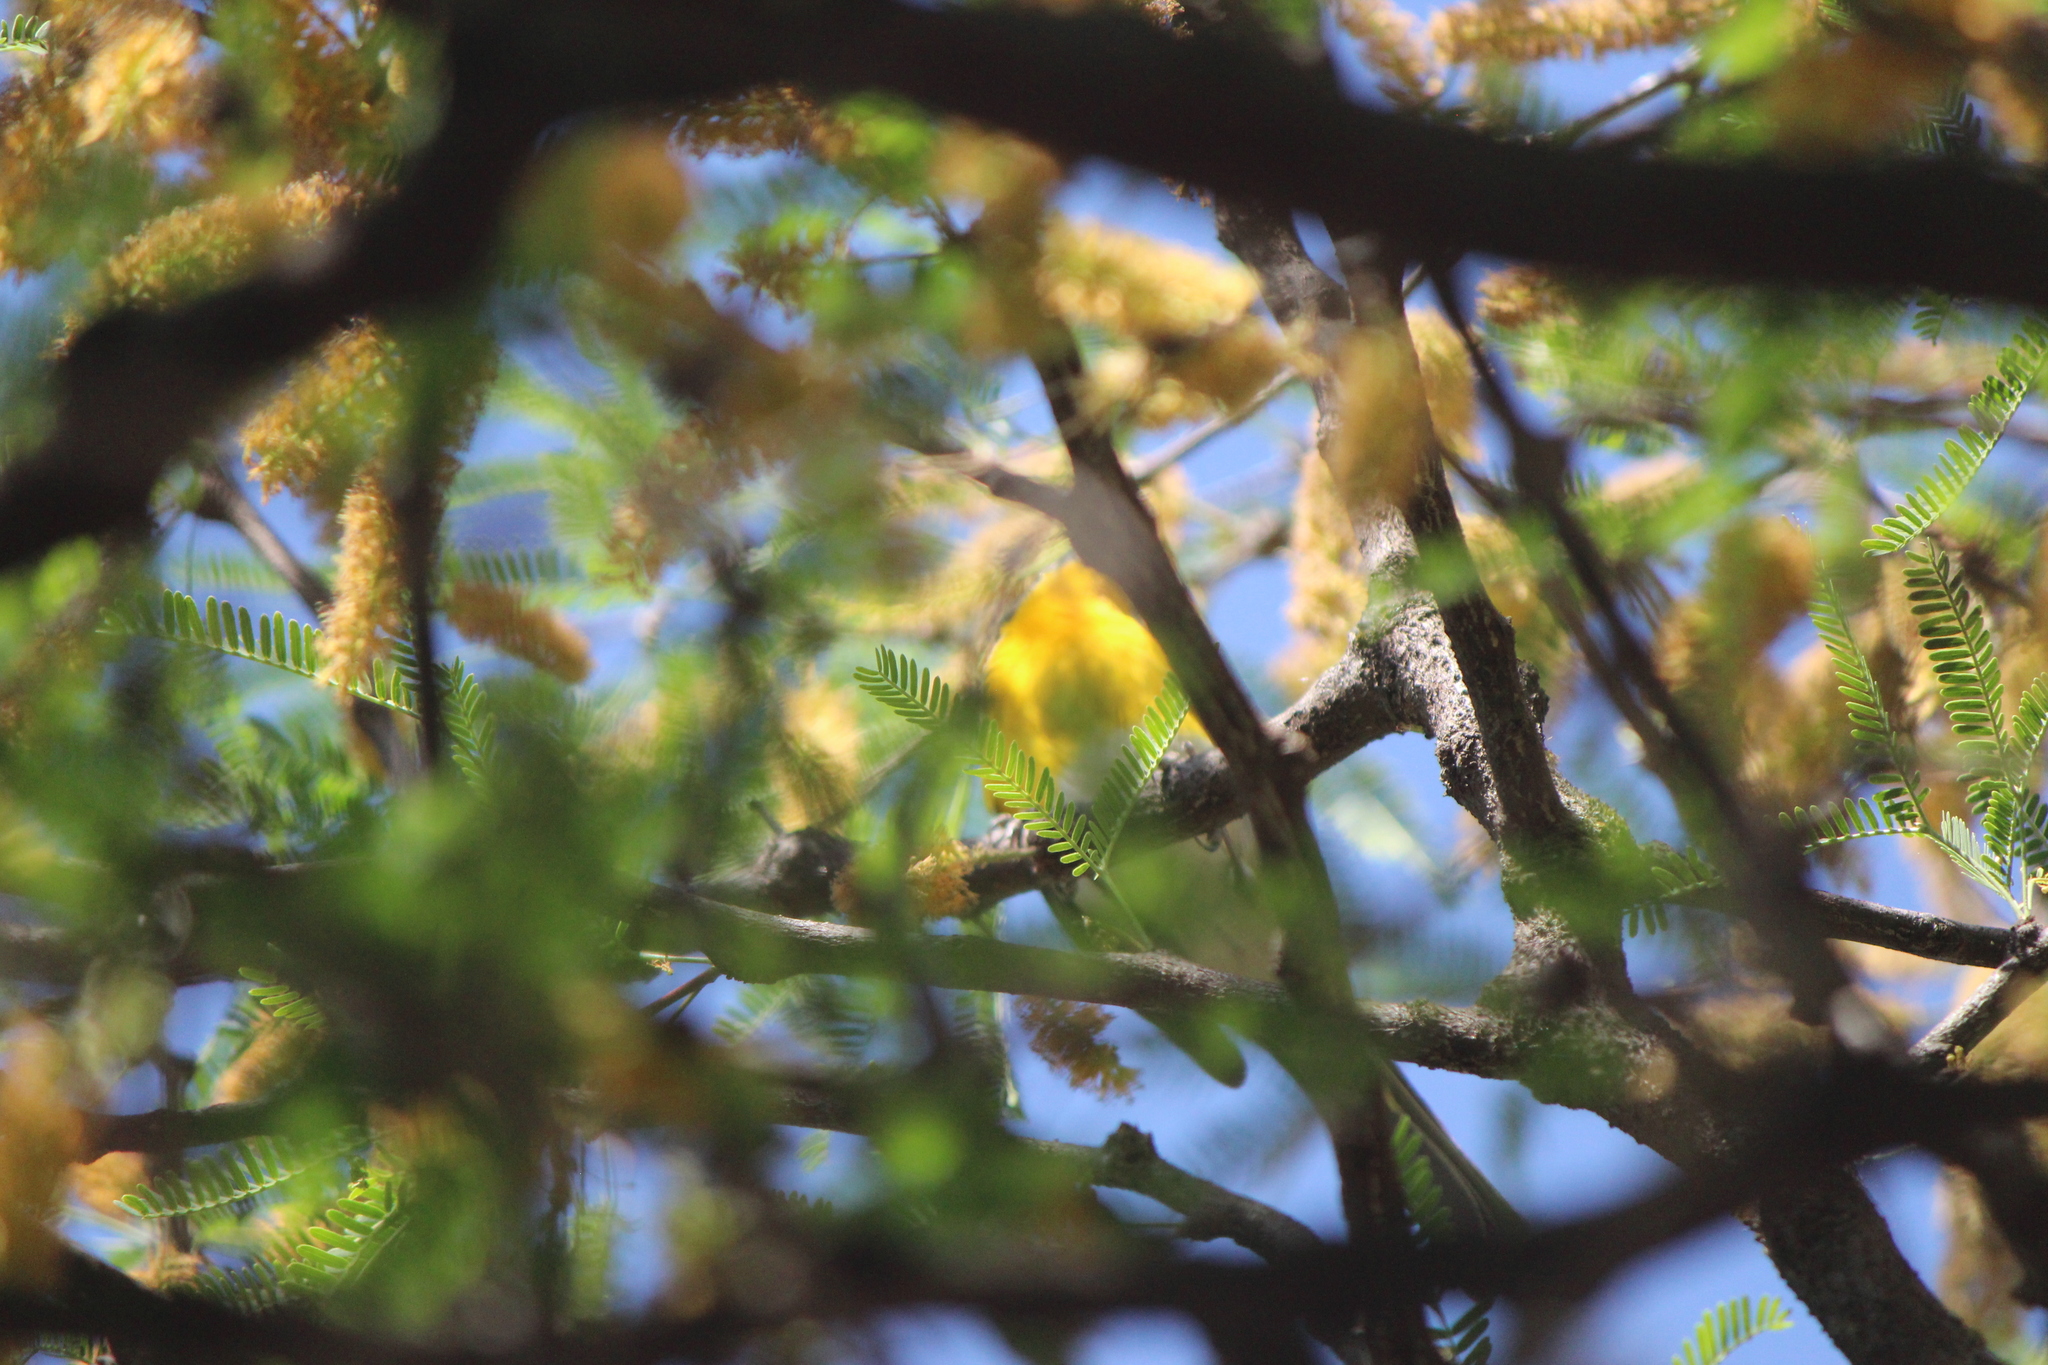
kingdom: Animalia
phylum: Chordata
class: Aves
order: Passeriformes
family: Parulidae
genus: Icteria
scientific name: Icteria virens
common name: Yellow-breasted chat
